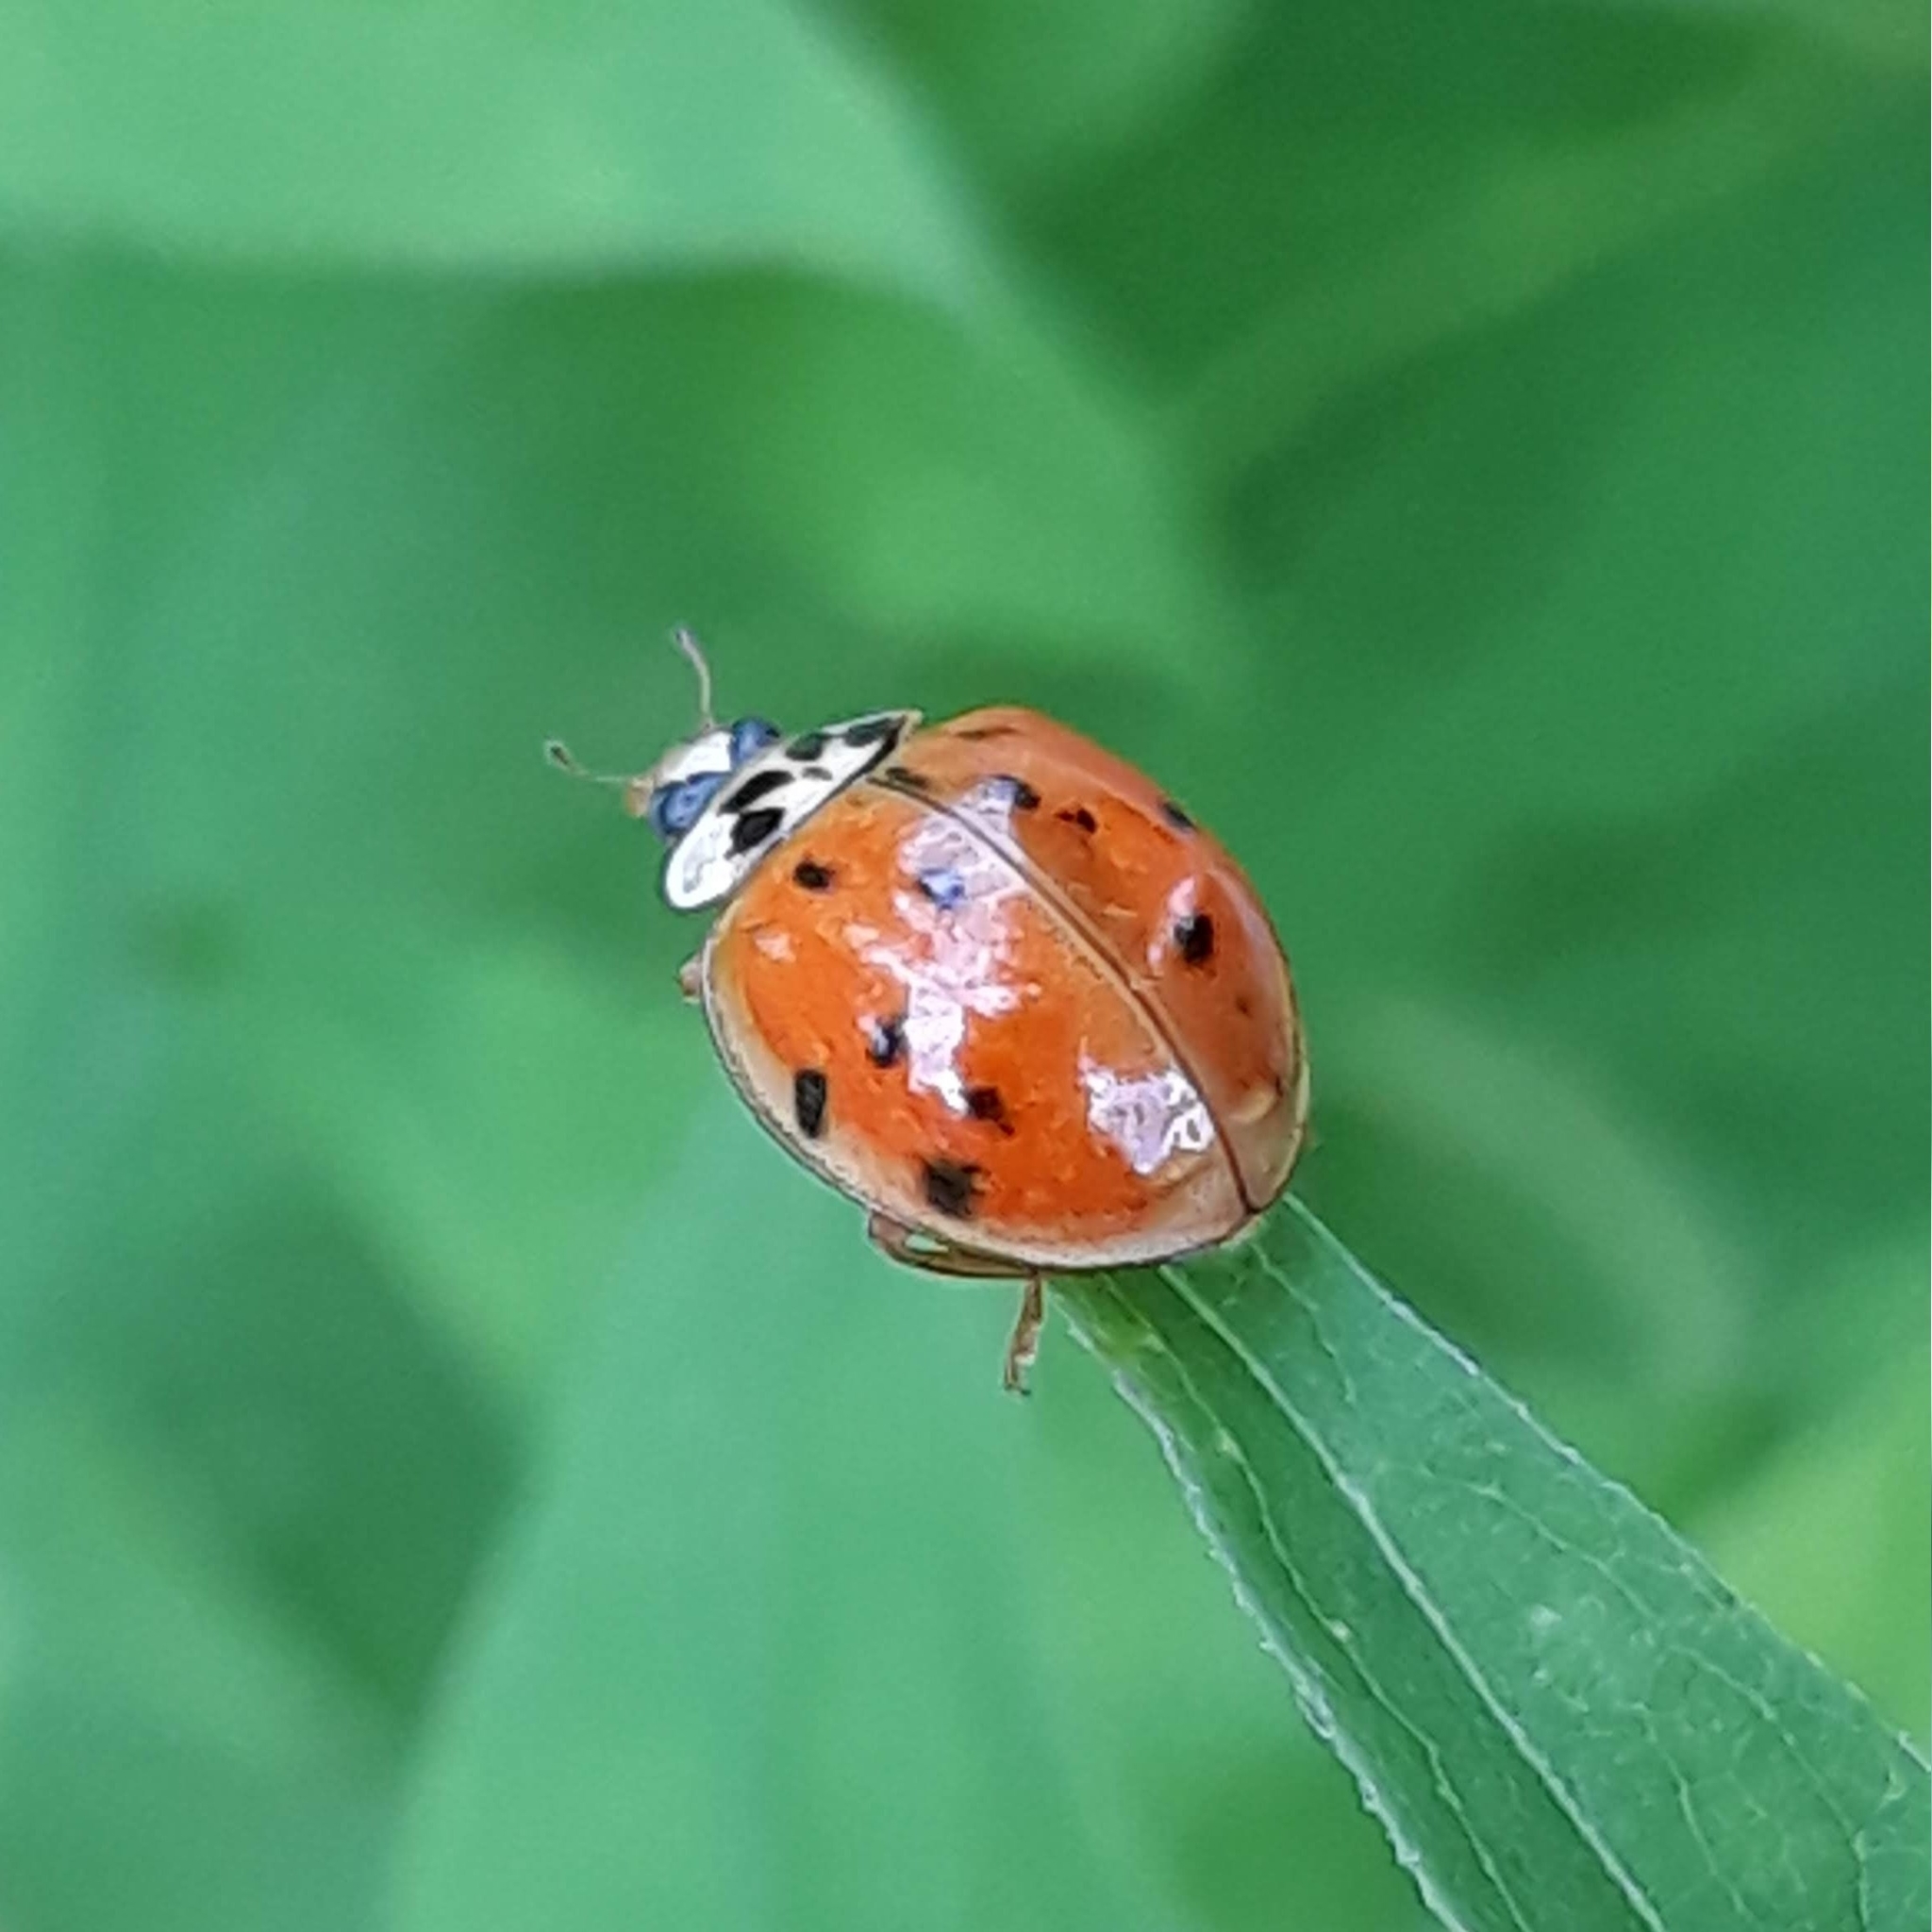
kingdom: Animalia
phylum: Arthropoda
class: Insecta
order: Coleoptera
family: Coccinellidae
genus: Harmonia
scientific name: Harmonia axyridis
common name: Harlequin ladybird
